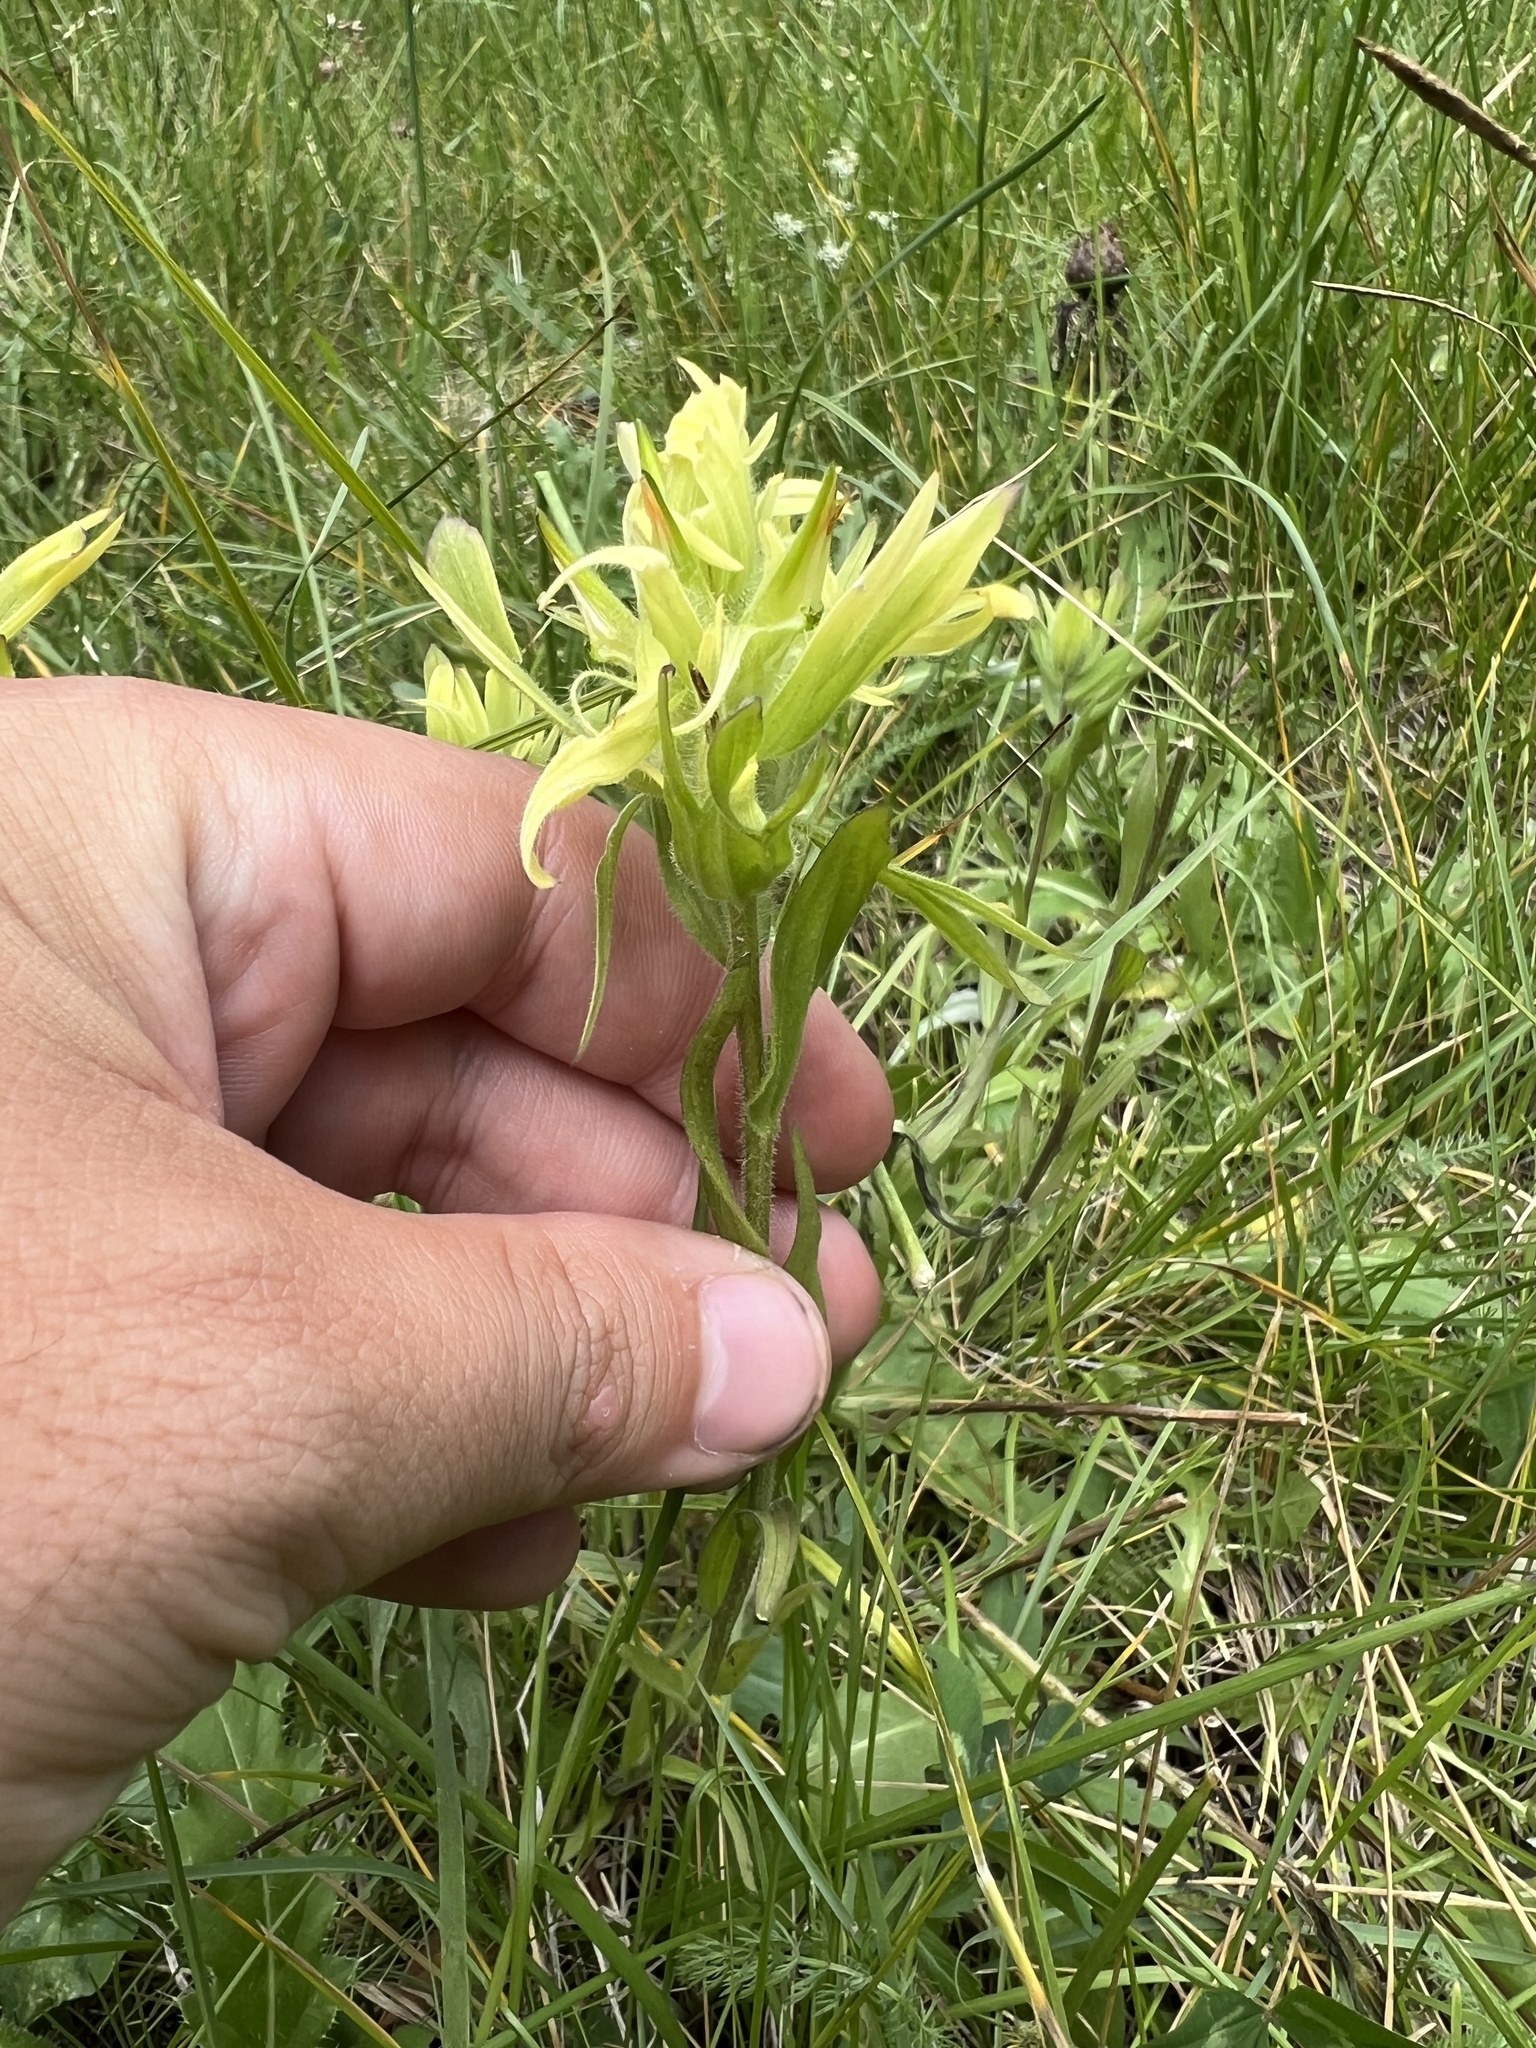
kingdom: Plantae
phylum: Tracheophyta
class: Magnoliopsida
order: Lamiales
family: Orobanchaceae
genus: Castilleja
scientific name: Castilleja mogollonica
